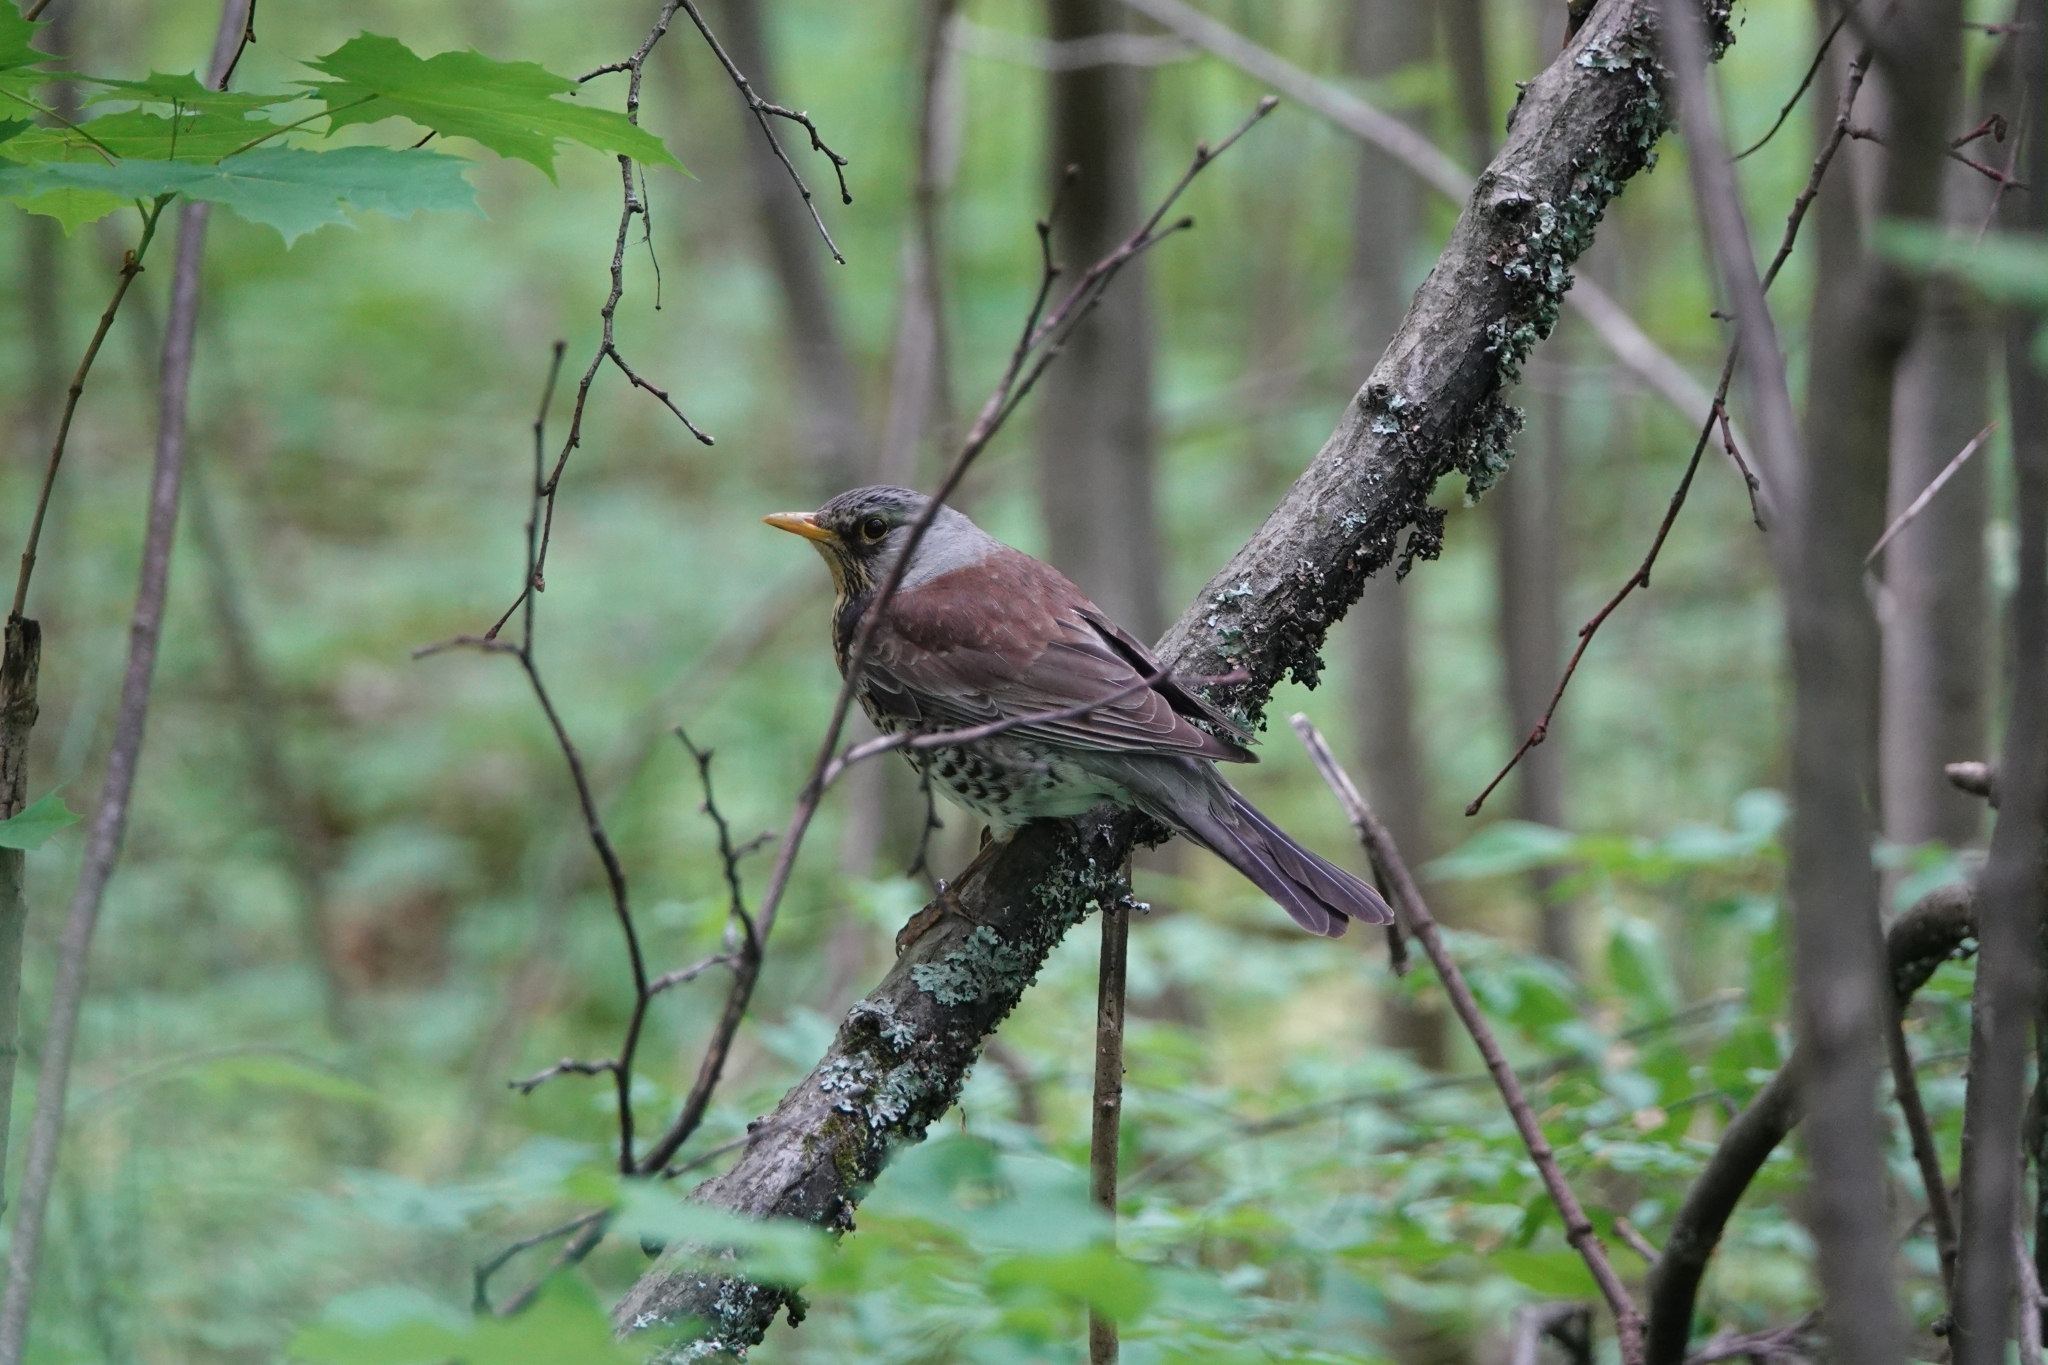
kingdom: Animalia
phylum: Chordata
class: Aves
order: Passeriformes
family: Turdidae
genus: Turdus
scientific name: Turdus pilaris
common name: Fieldfare
